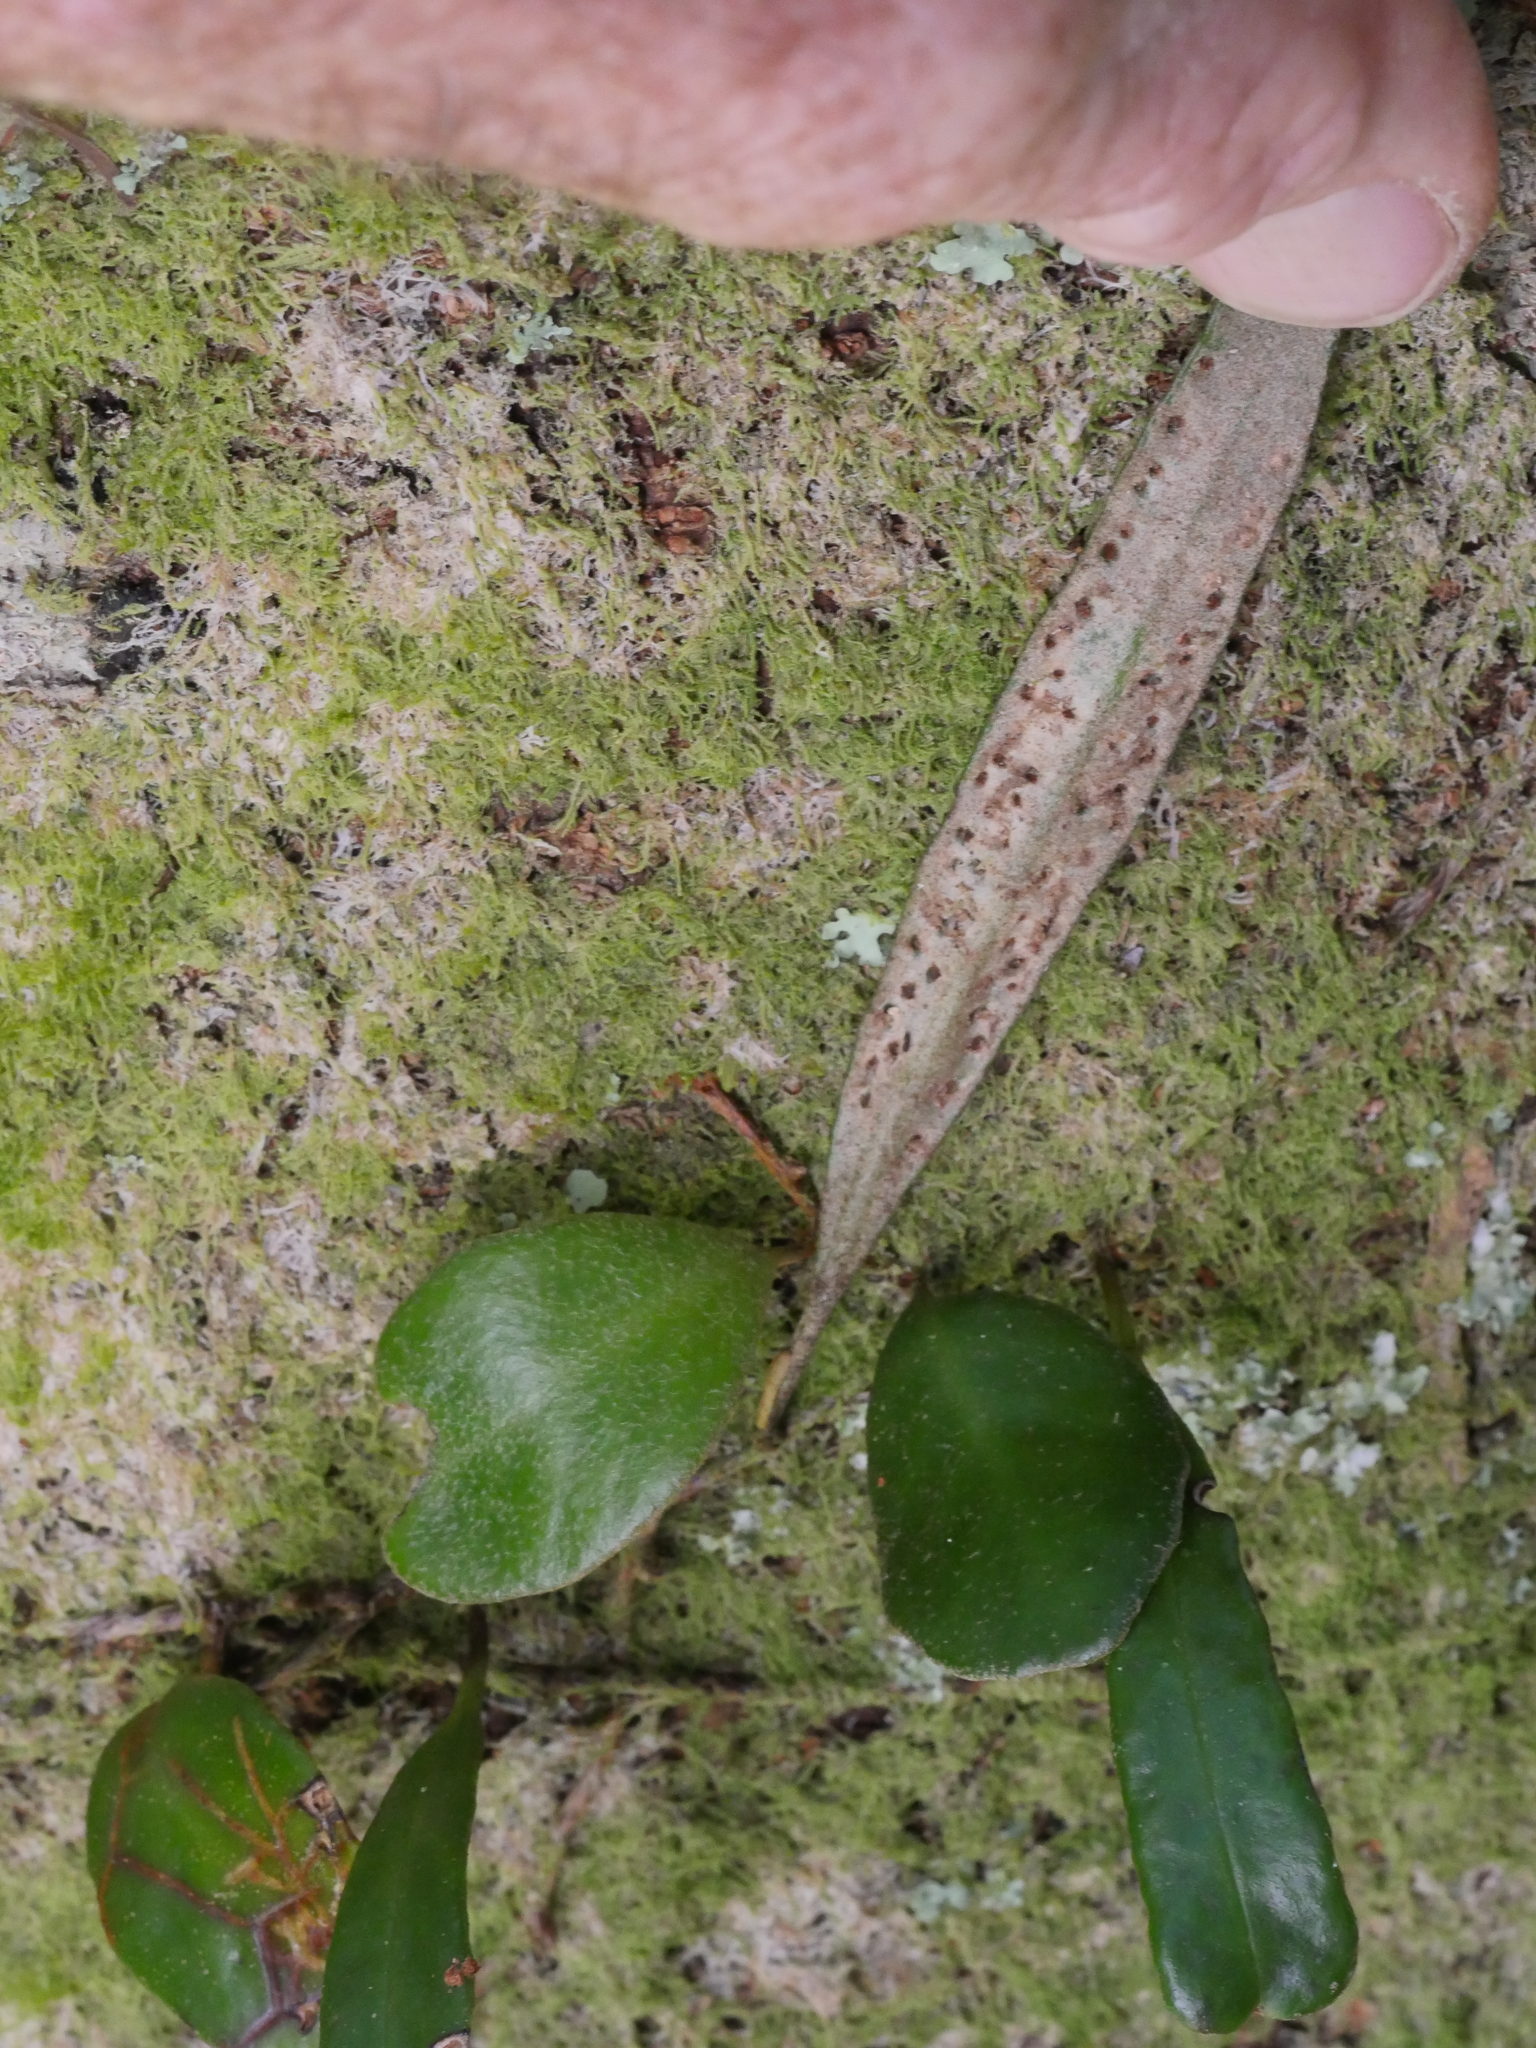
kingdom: Plantae
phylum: Tracheophyta
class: Polypodiopsida
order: Polypodiales
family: Polypodiaceae
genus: Pyrrosia
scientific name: Pyrrosia eleagnifolia
